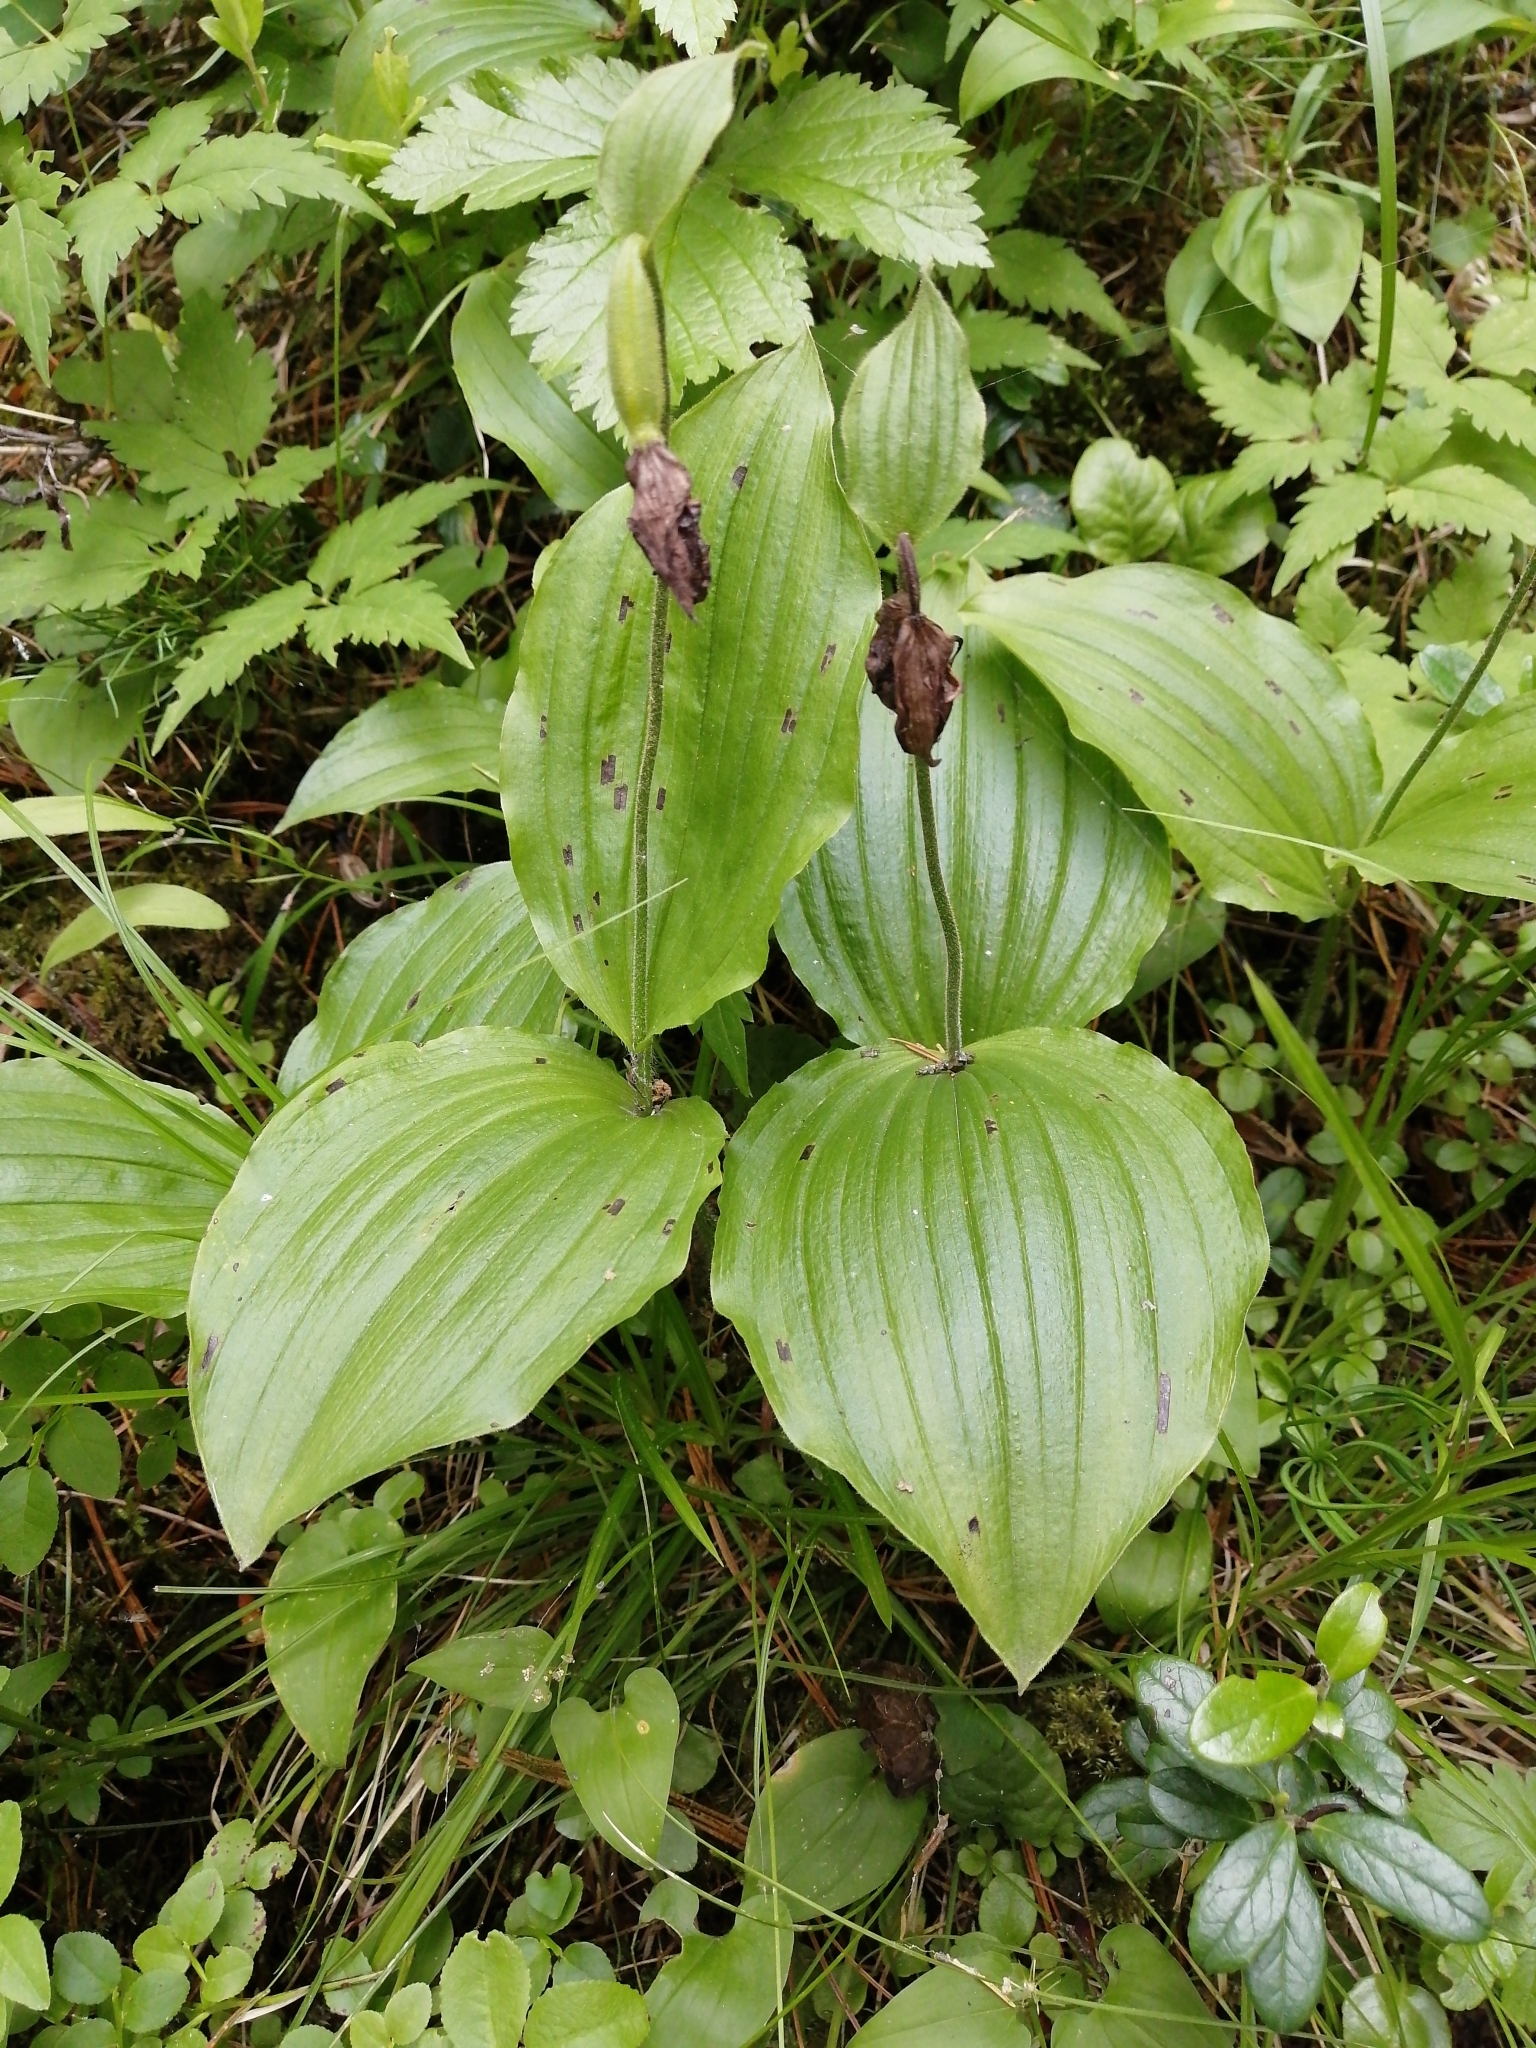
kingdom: Plantae
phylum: Tracheophyta
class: Liliopsida
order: Asparagales
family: Orchidaceae
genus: Cypripedium
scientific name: Cypripedium guttatum
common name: Pink lady slipper
